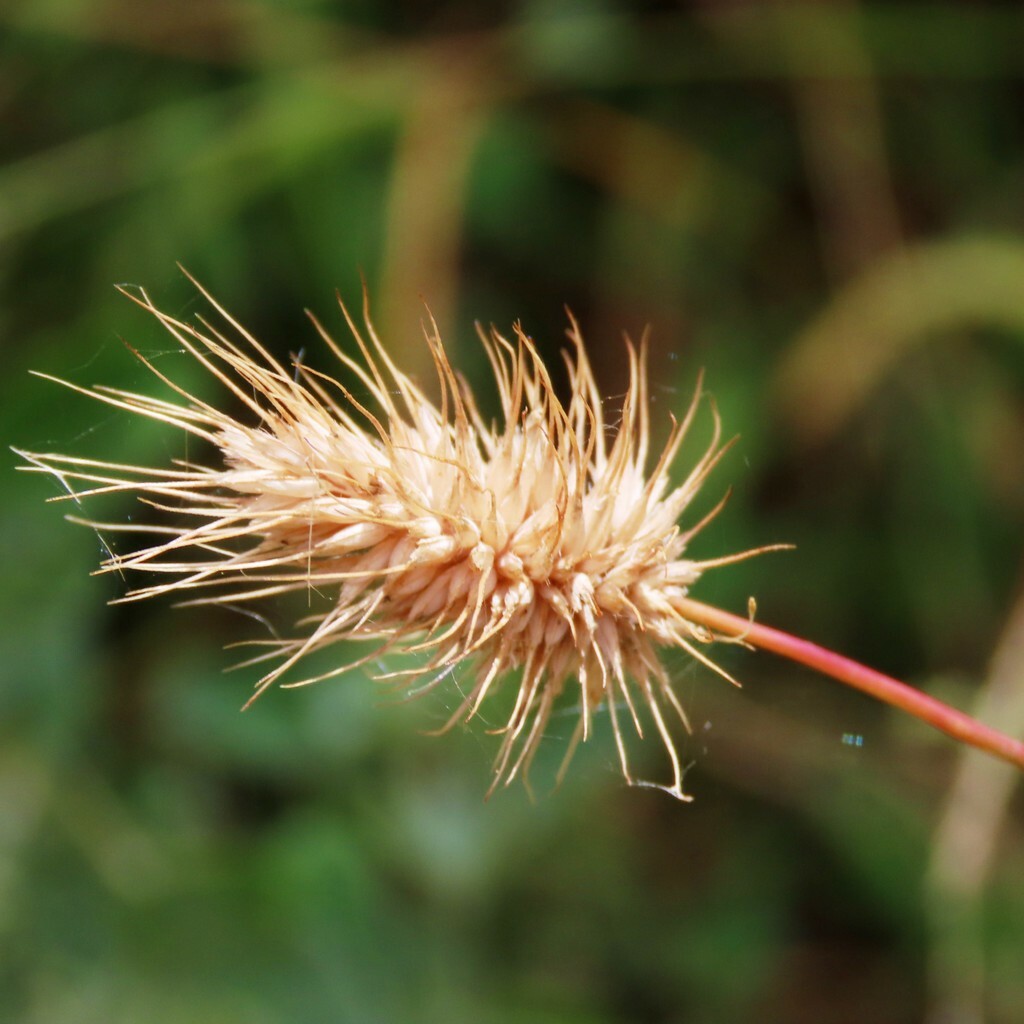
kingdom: Plantae
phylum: Tracheophyta
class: Liliopsida
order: Poales
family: Poaceae
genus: Echinopogon
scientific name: Echinopogon ovatus
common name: Hedgehog-grass
